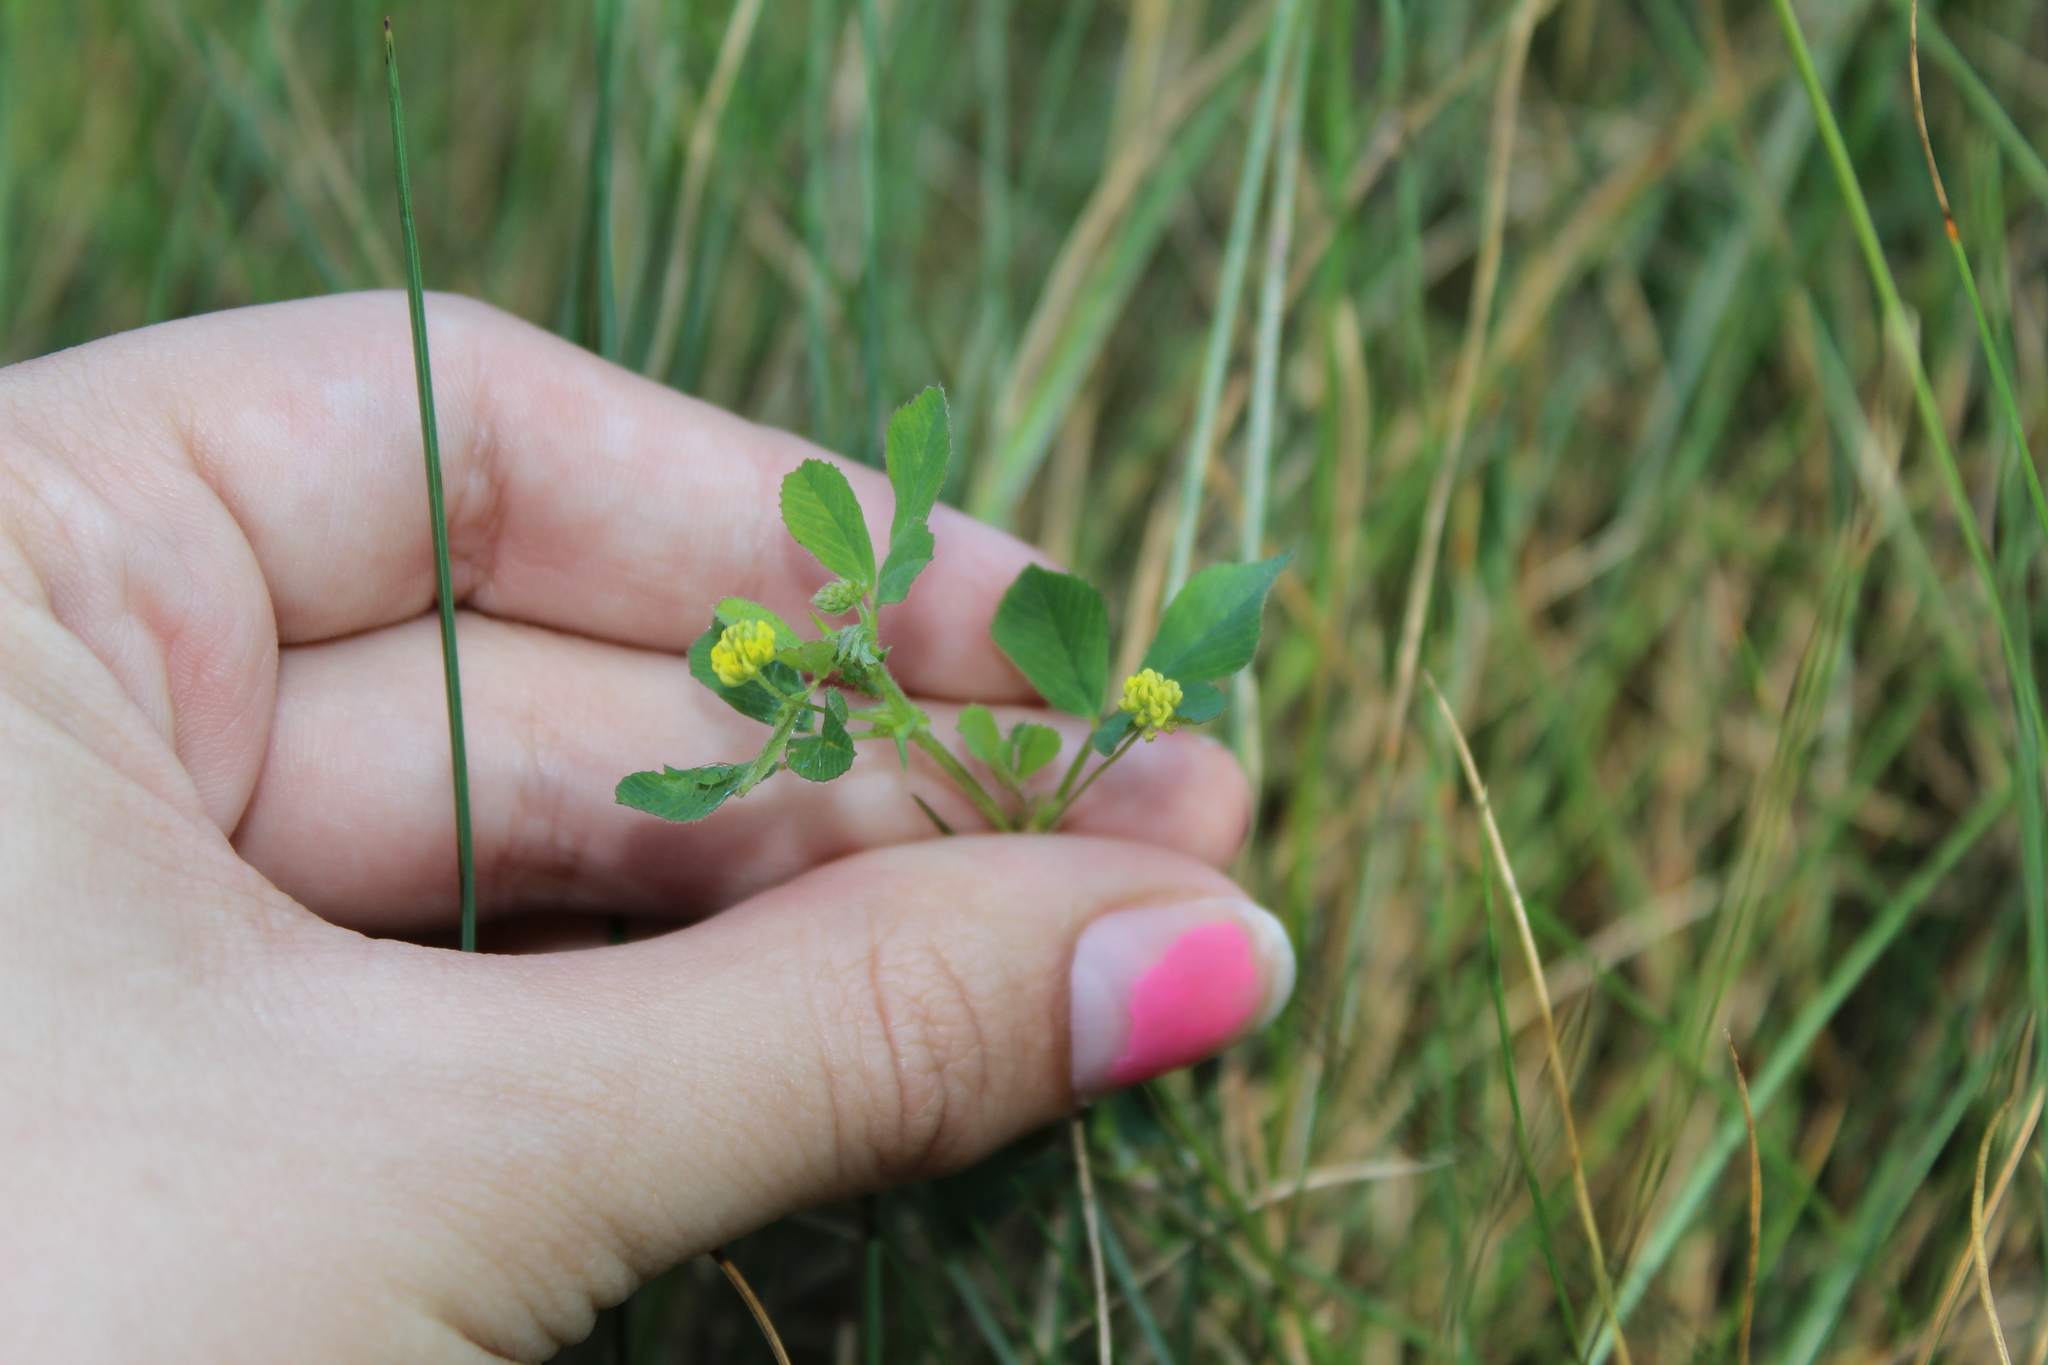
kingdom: Plantae
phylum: Tracheophyta
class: Magnoliopsida
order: Fabales
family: Fabaceae
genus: Medicago
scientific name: Medicago lupulina
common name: Black medick
